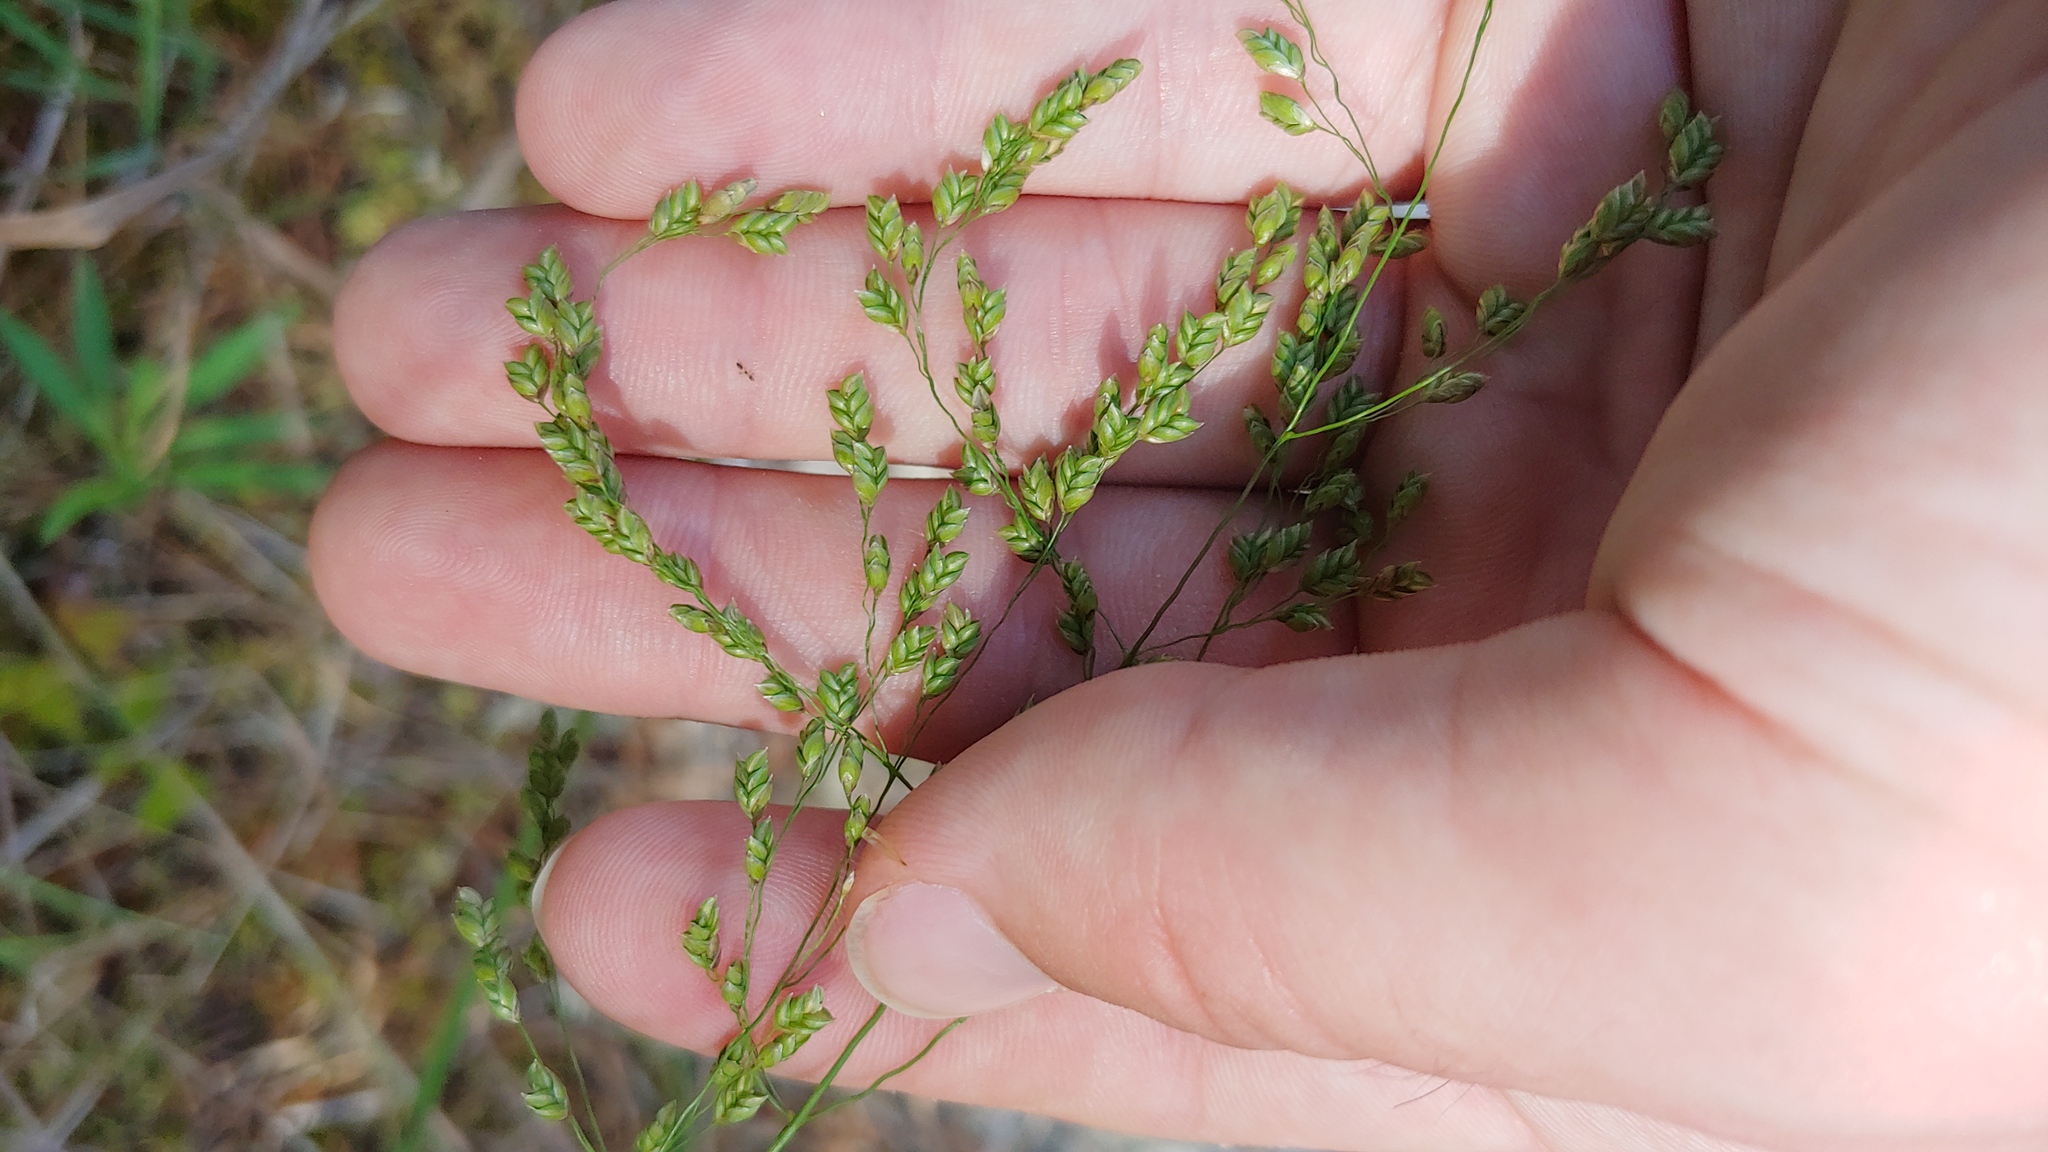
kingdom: Plantae
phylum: Tracheophyta
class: Liliopsida
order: Poales
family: Poaceae
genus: Glyceria
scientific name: Glyceria canadensis
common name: Canada mannagrass
